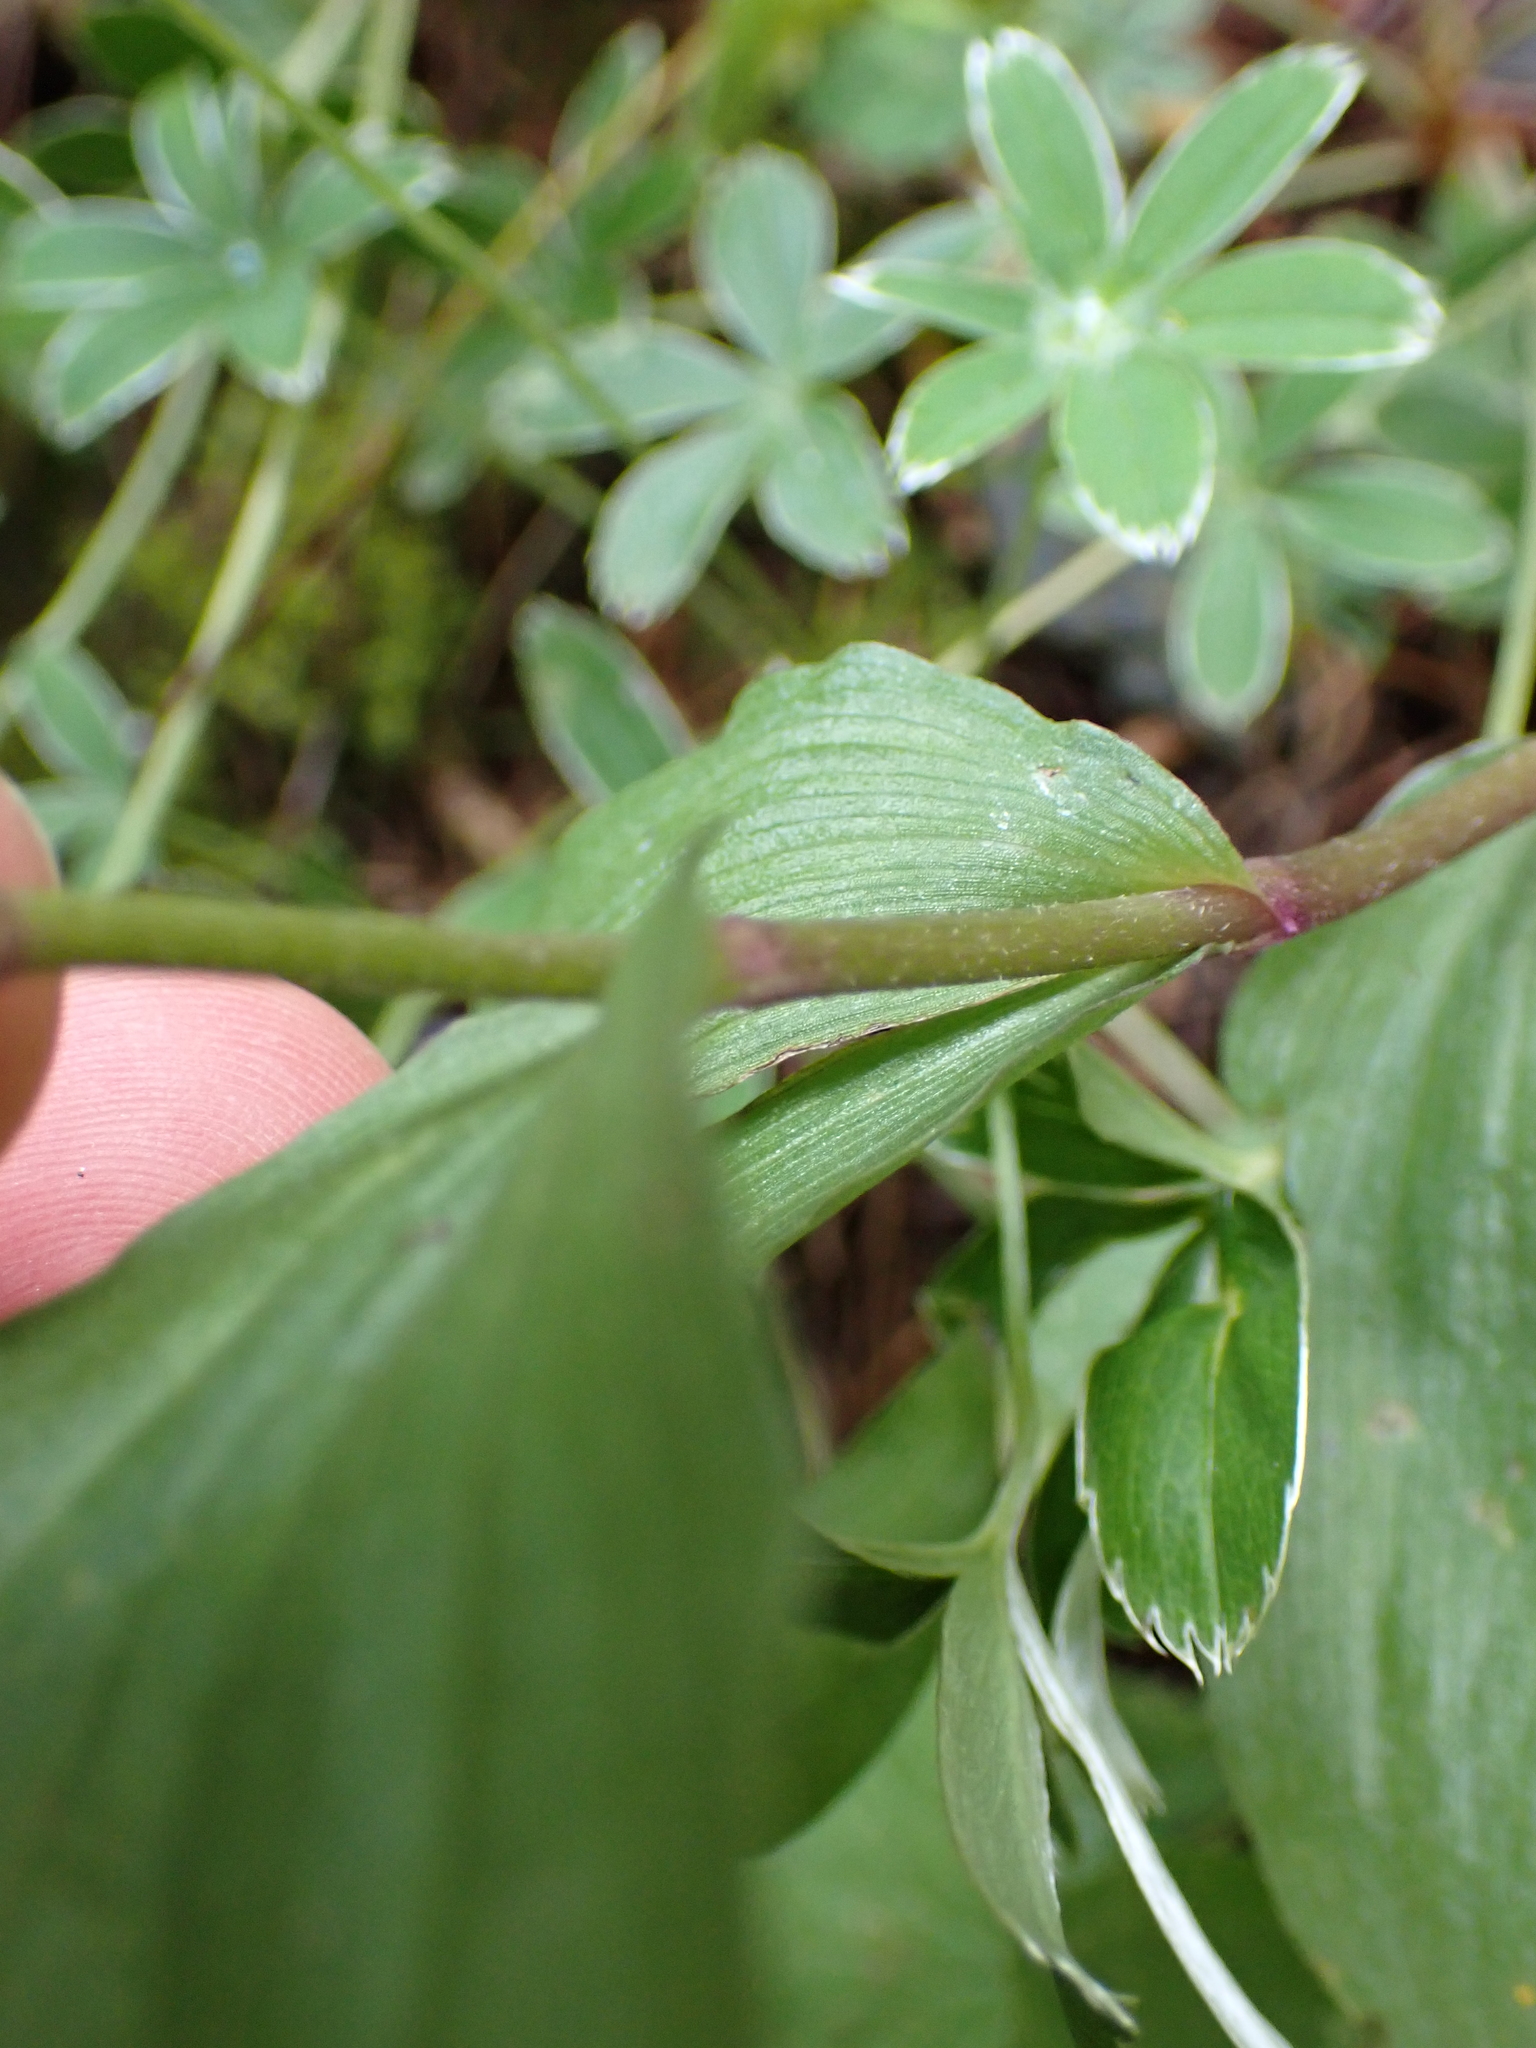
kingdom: Plantae
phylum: Tracheophyta
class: Liliopsida
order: Asparagales
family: Orchidaceae
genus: Epipactis
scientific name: Epipactis atrorubens
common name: Dark-red helleborine
